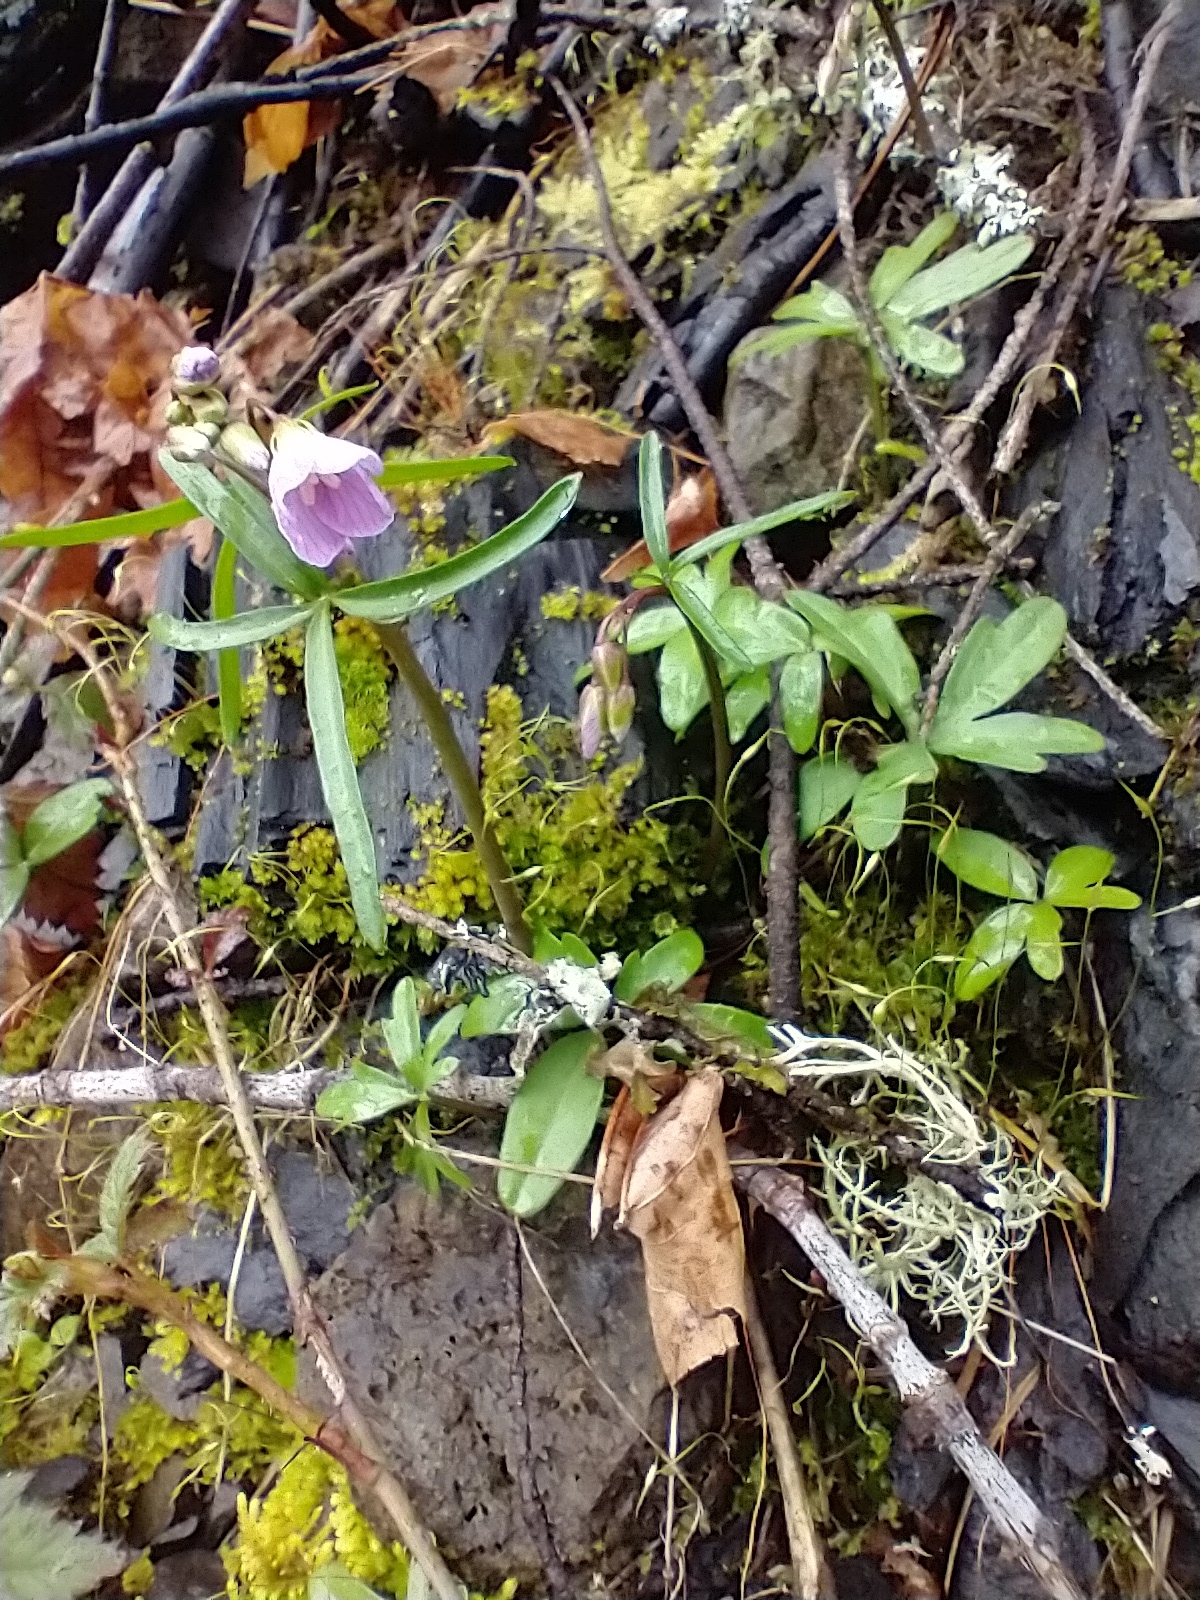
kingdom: Plantae
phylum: Tracheophyta
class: Magnoliopsida
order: Brassicales
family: Brassicaceae
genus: Cardamine
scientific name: Cardamine nuttallii
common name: Nuttall's toothwort
